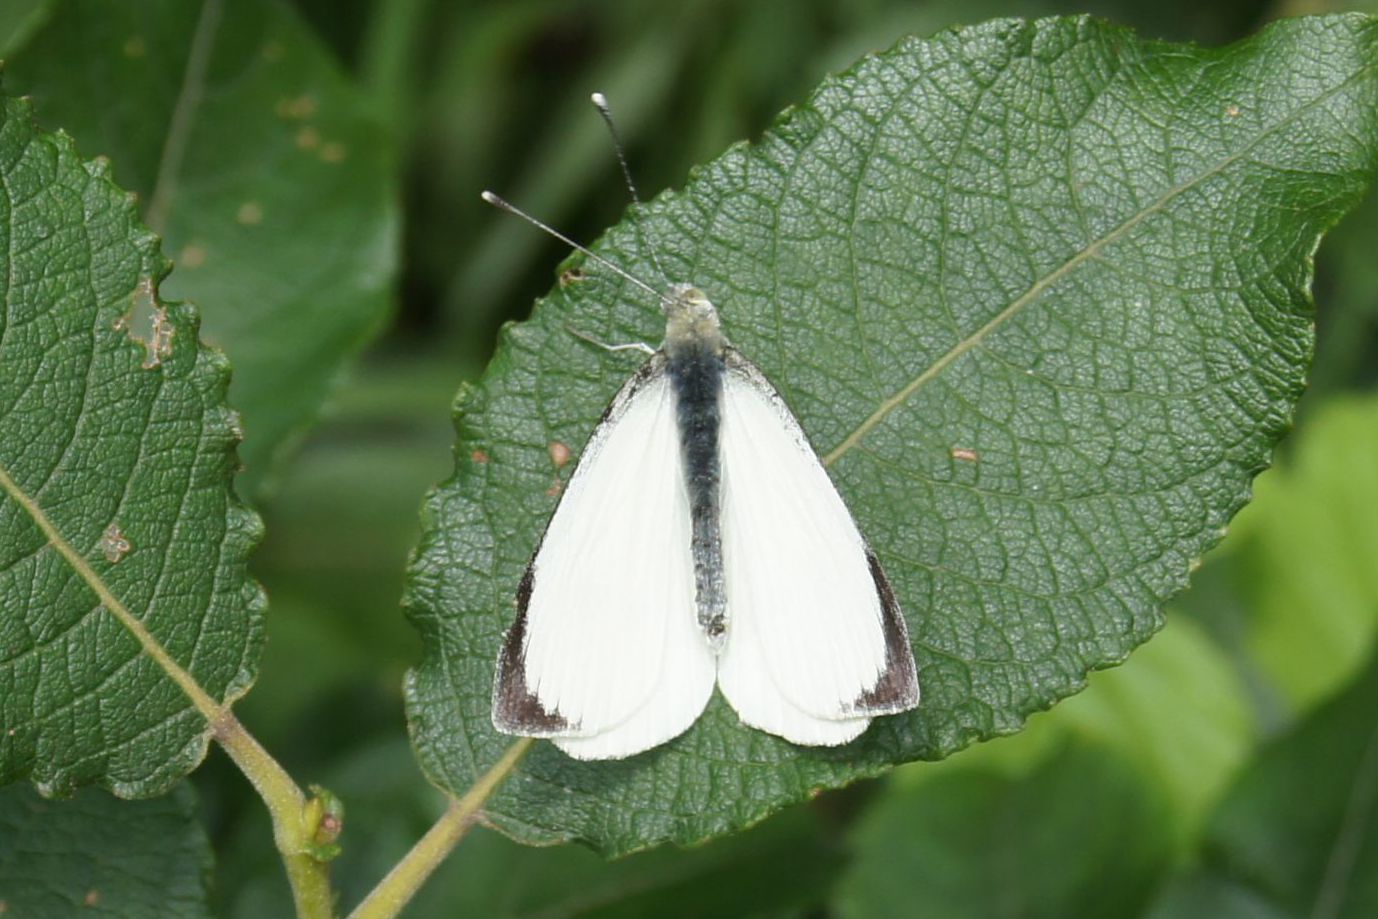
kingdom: Animalia
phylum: Arthropoda
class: Insecta
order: Lepidoptera
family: Pieridae
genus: Pieris
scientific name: Pieris brassicae
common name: Large white
